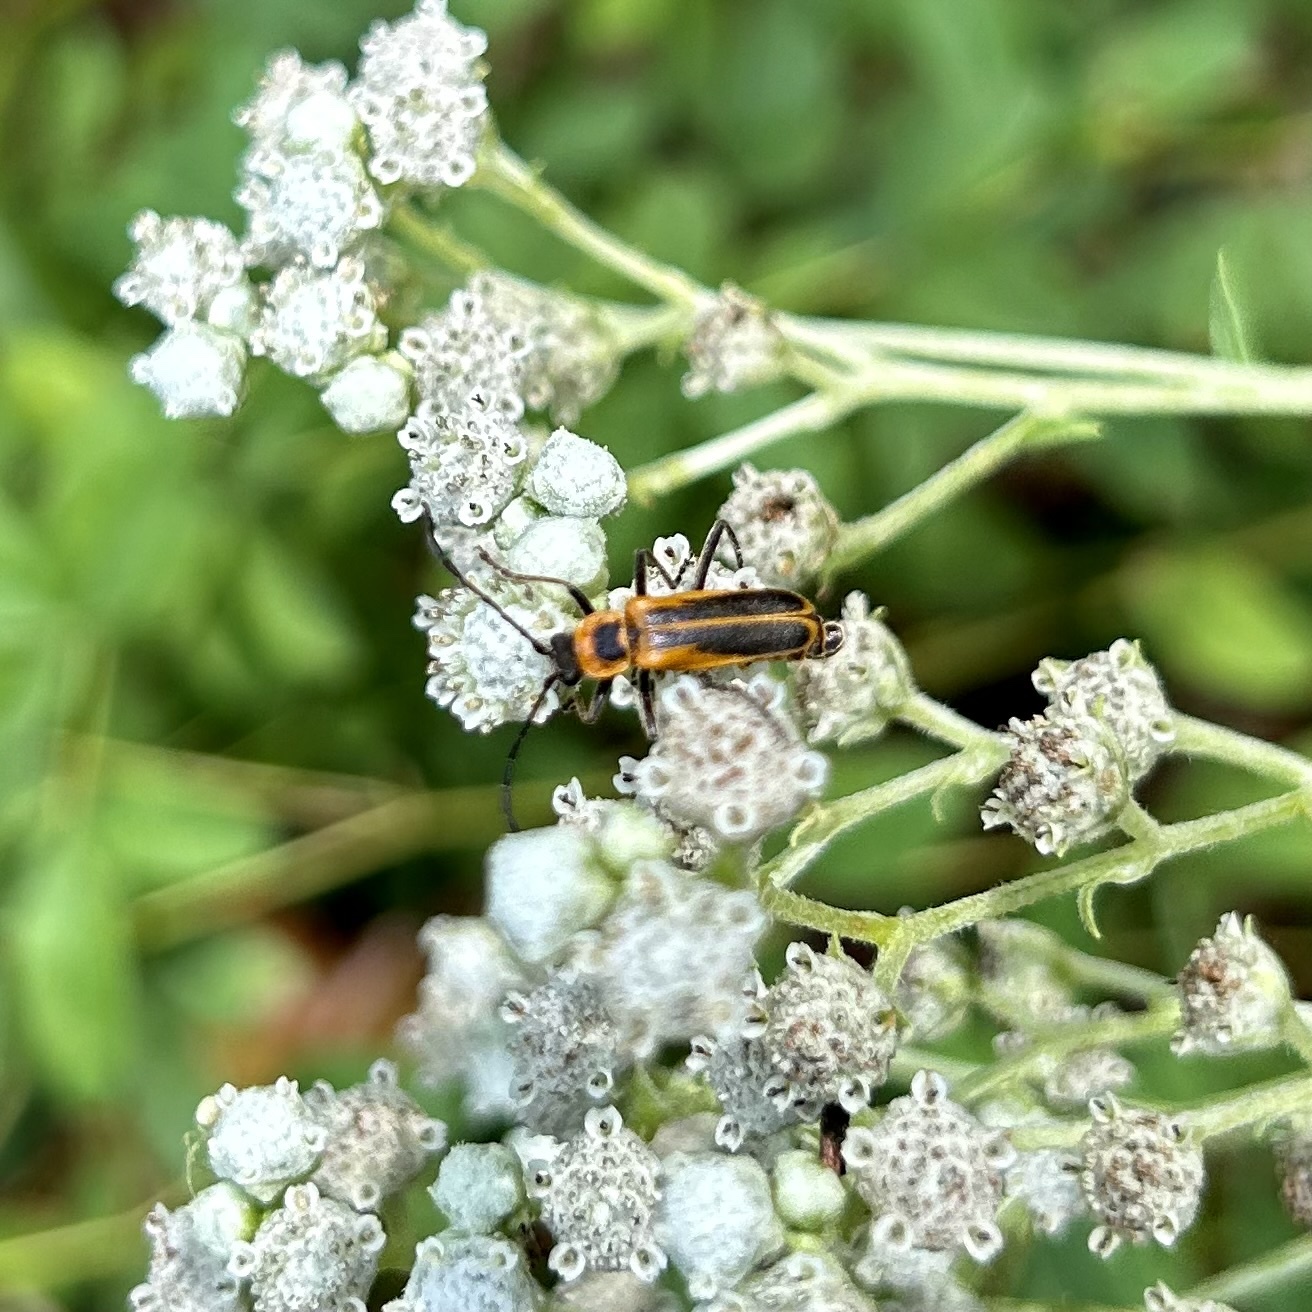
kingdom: Animalia
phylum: Arthropoda
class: Insecta
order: Coleoptera
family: Cantharidae
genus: Chauliognathus
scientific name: Chauliognathus pensylvanicus
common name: Goldenrod soldier beetle
